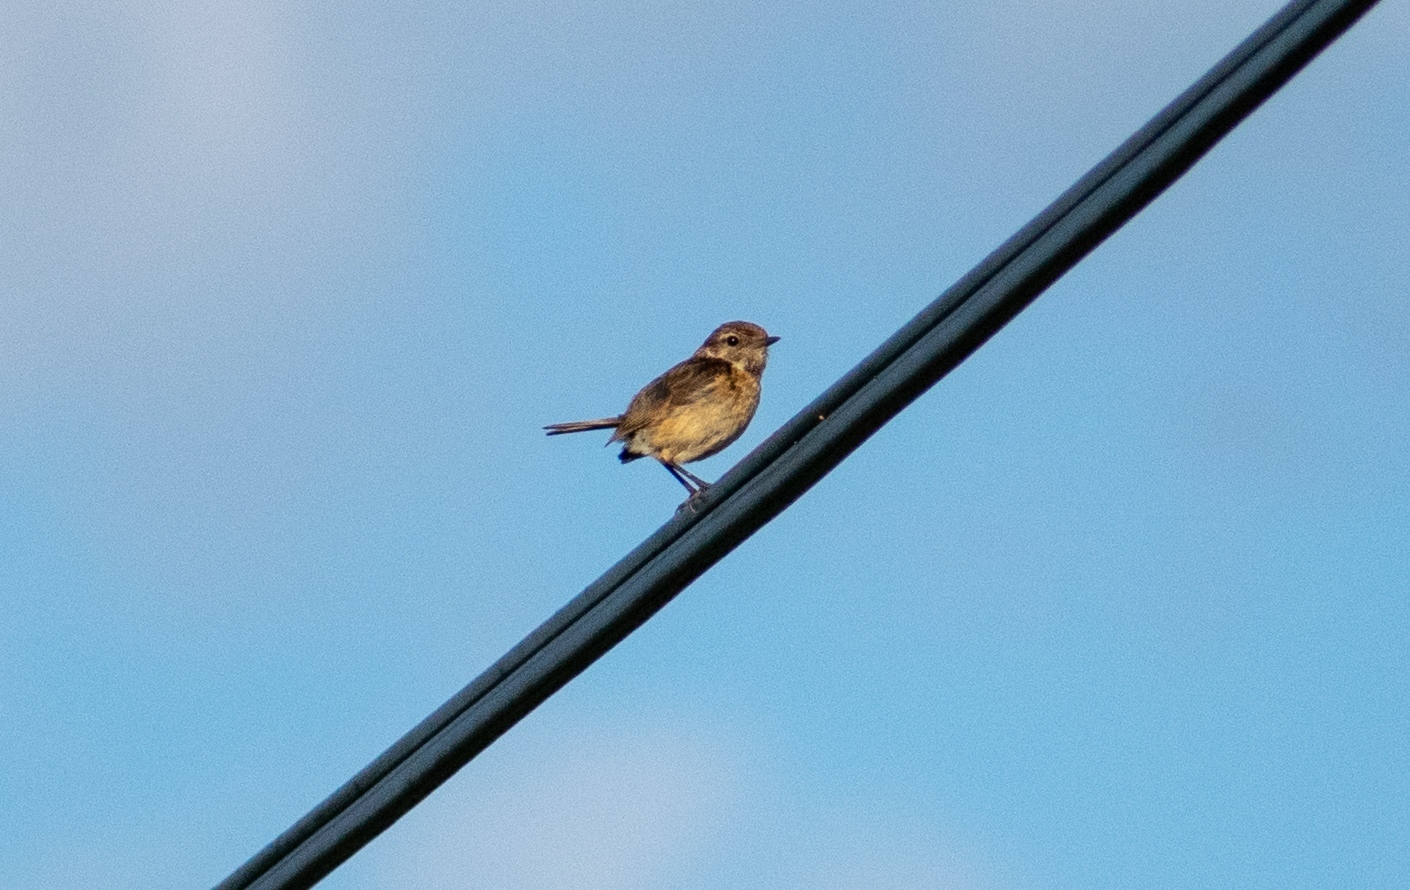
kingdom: Animalia
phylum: Chordata
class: Aves
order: Passeriformes
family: Muscicapidae
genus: Saxicola
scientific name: Saxicola rubicola
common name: European stonechat
